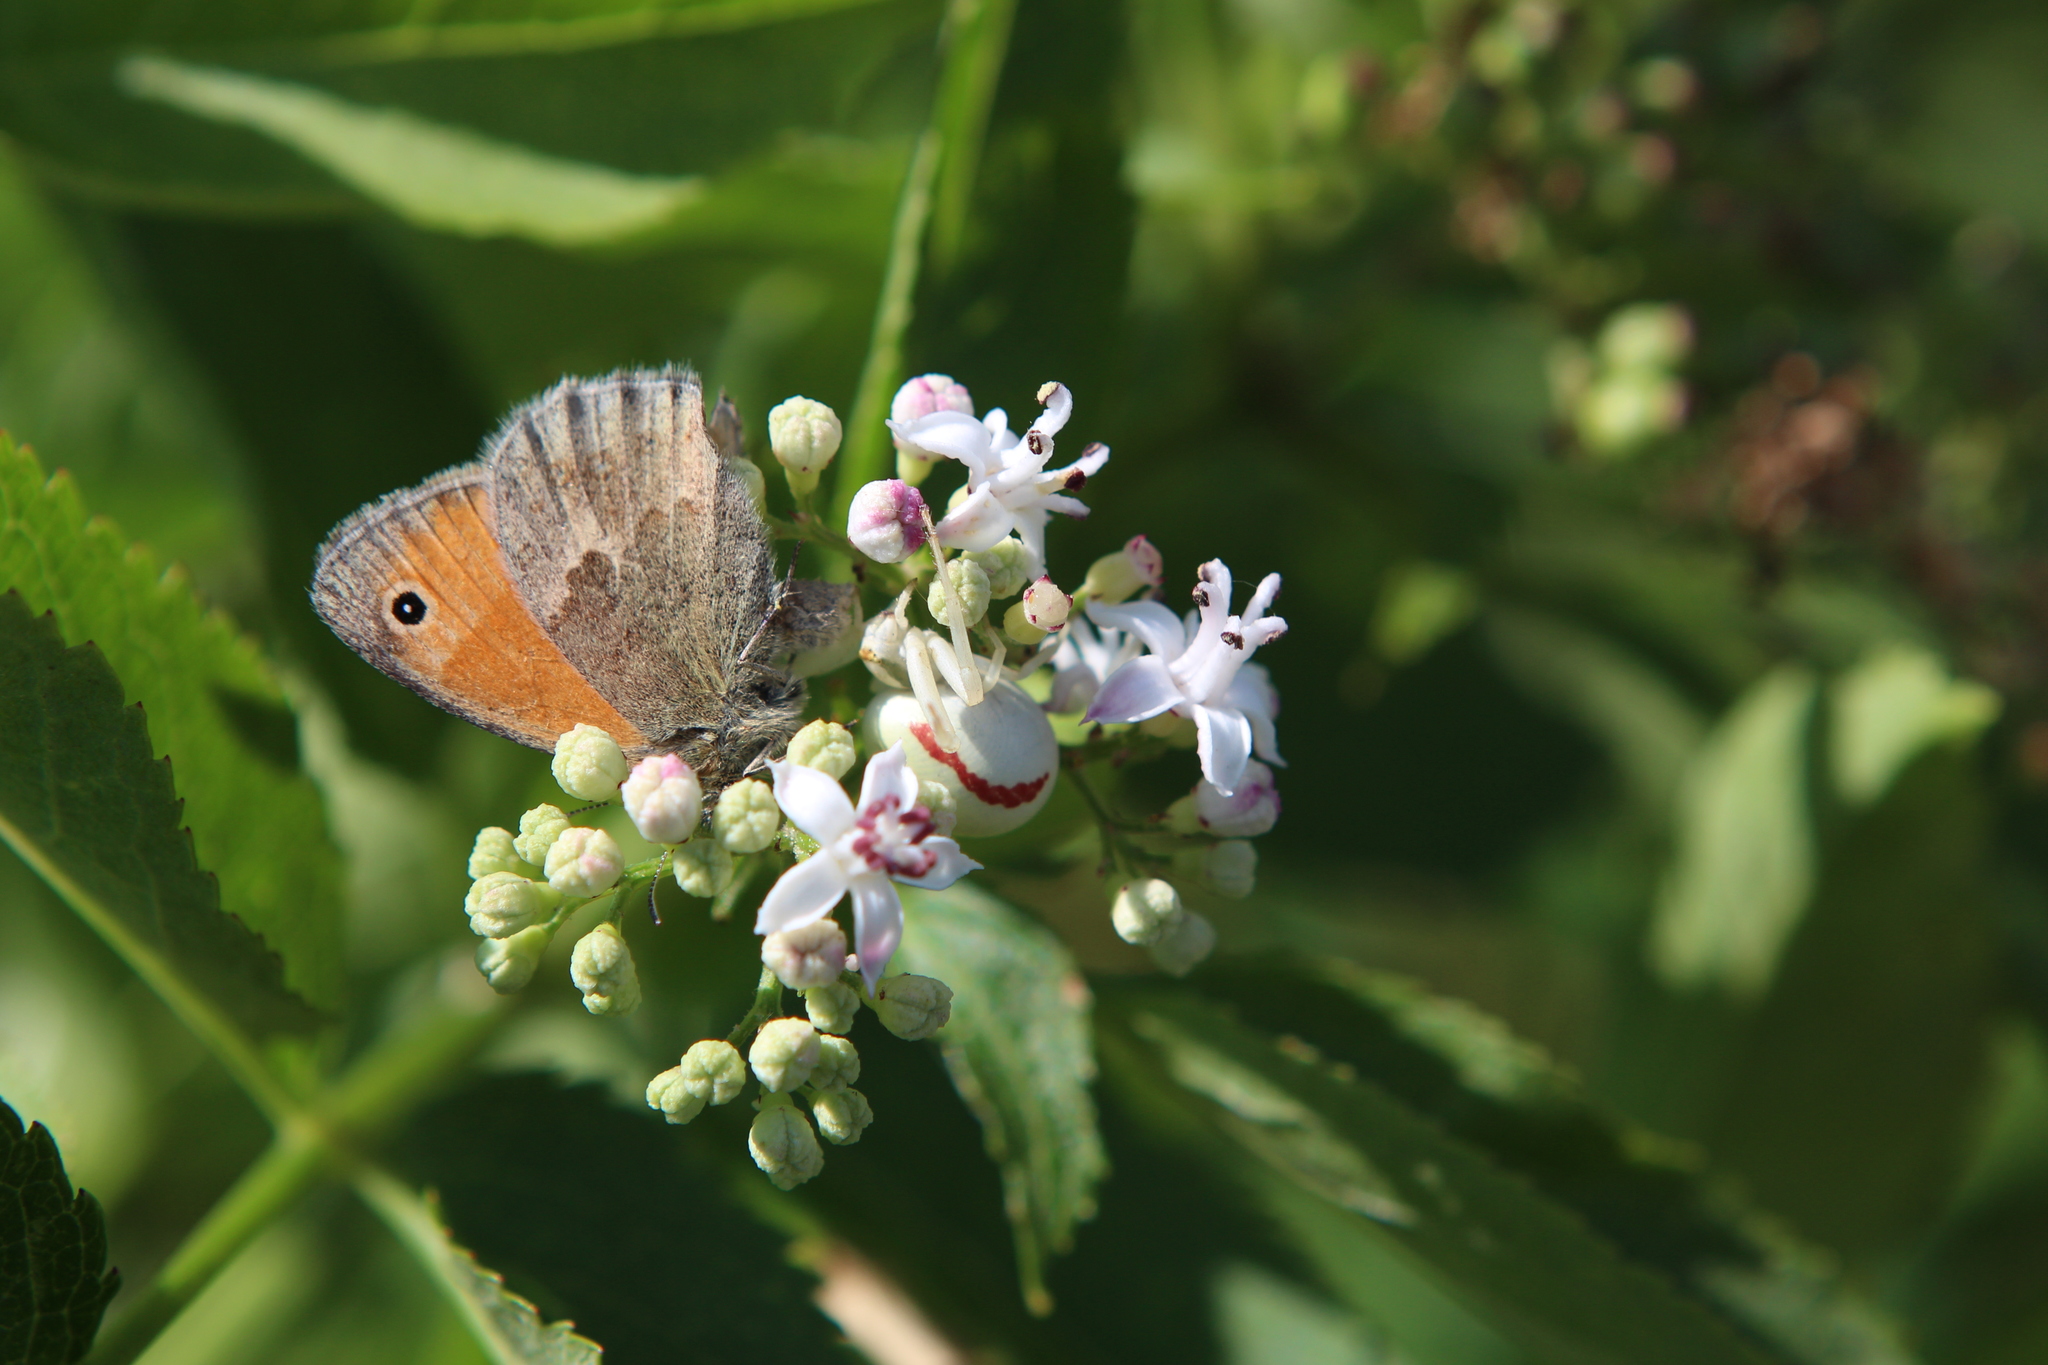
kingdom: Animalia
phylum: Arthropoda
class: Arachnida
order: Araneae
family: Thomisidae
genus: Misumena
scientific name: Misumena vatia
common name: Goldenrod crab spider
